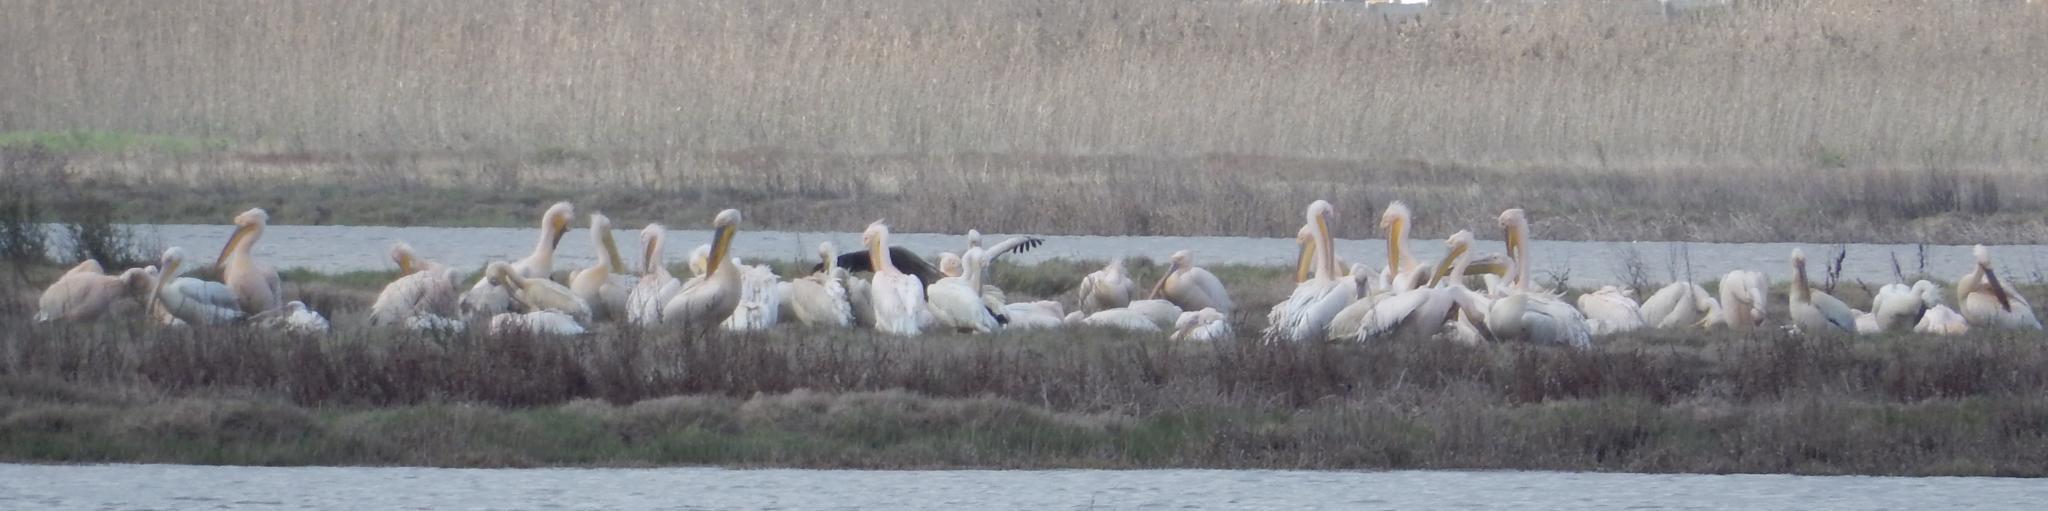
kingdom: Animalia
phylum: Chordata
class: Aves
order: Pelecaniformes
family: Pelecanidae
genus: Pelecanus
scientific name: Pelecanus onocrotalus
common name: Great white pelican
